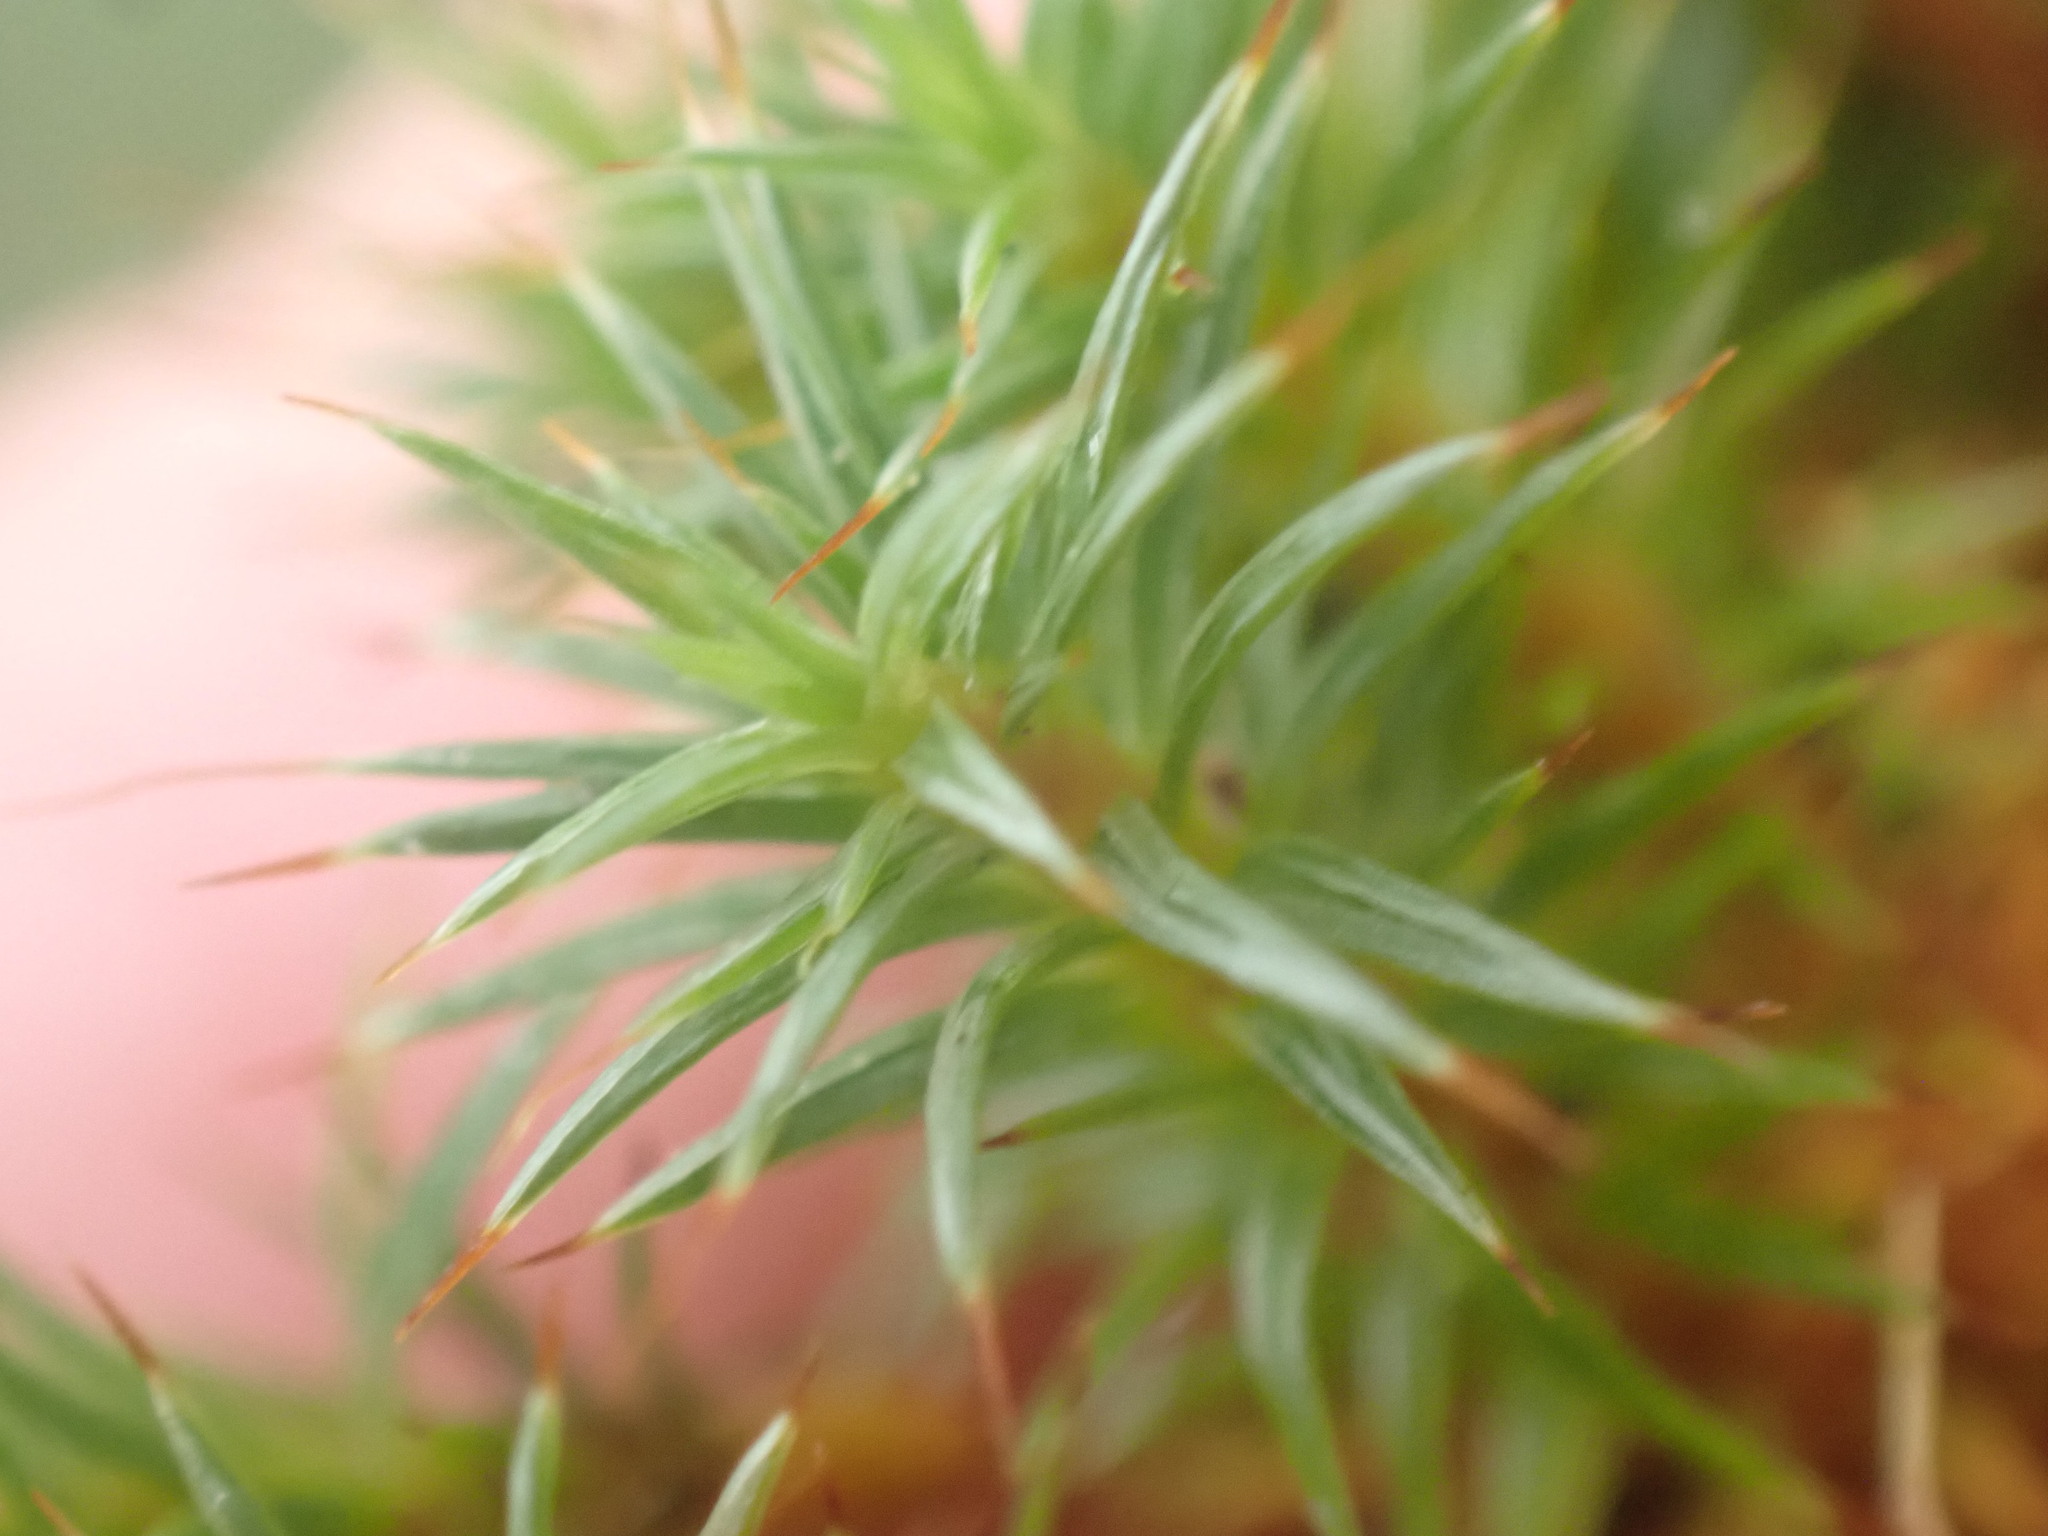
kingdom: Plantae
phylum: Bryophyta
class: Polytrichopsida
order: Polytrichales
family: Polytrichaceae
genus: Polytrichum
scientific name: Polytrichum juniperinum
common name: Juniper haircap moss
